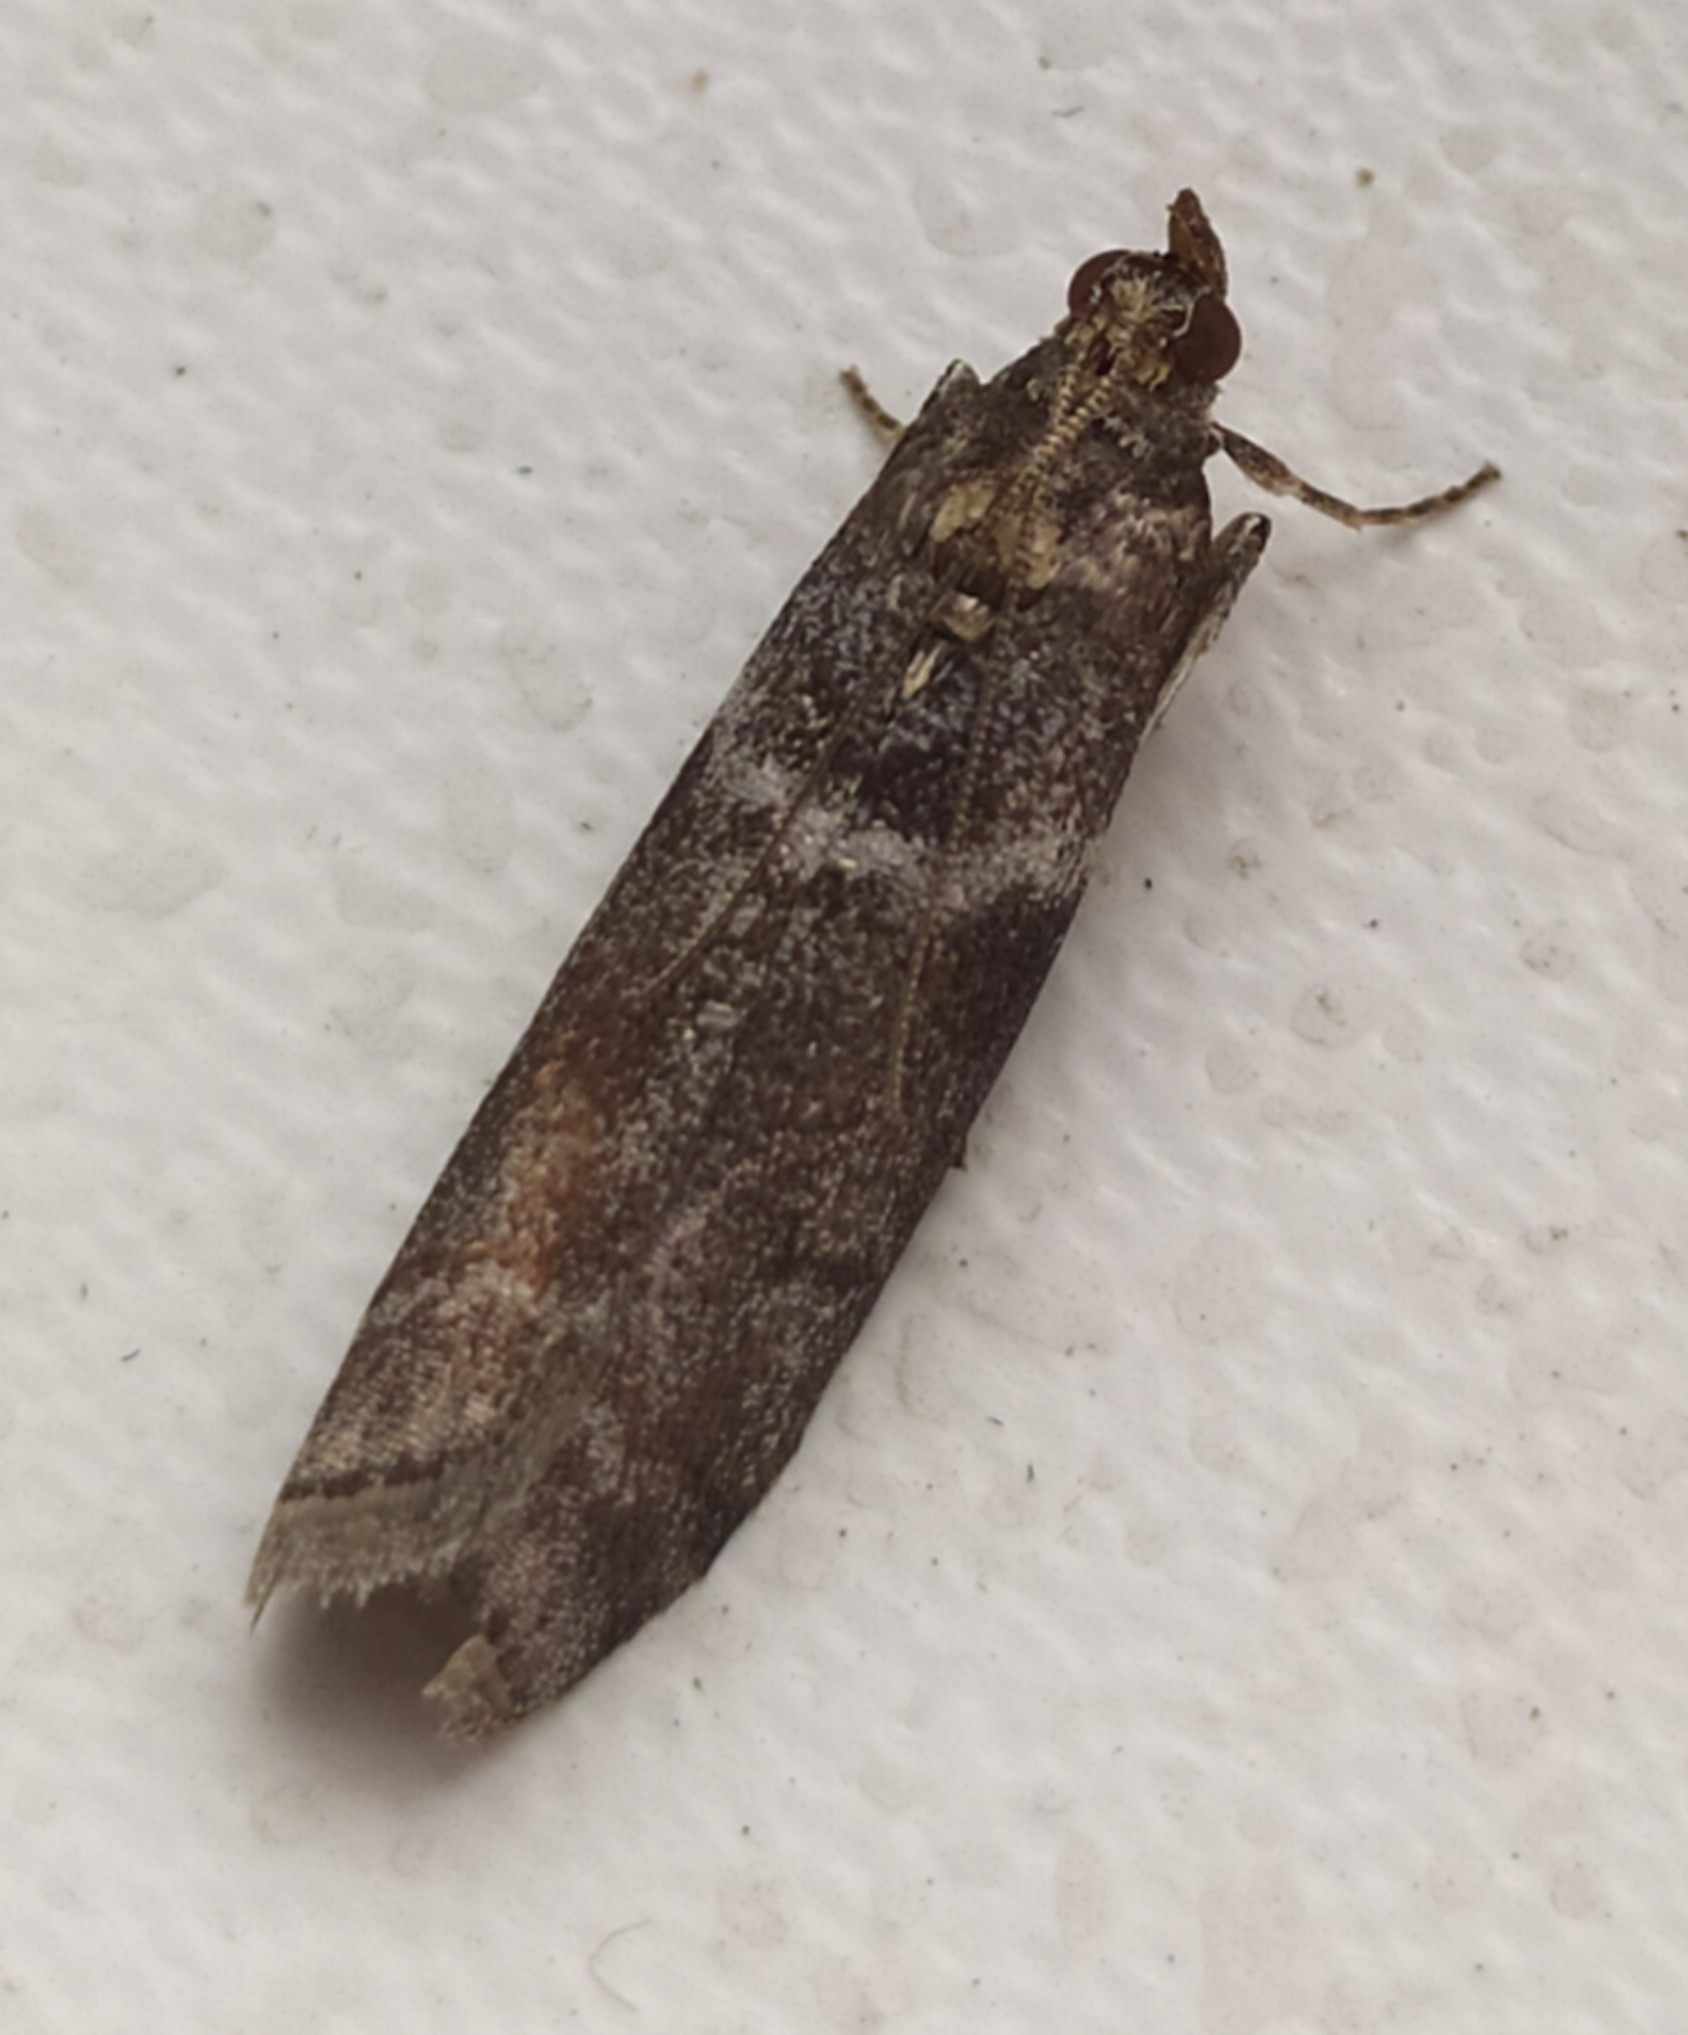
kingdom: Animalia
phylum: Arthropoda
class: Insecta
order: Lepidoptera
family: Pyralidae
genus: Oncocera
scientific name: Oncocera Laodamia faecella
